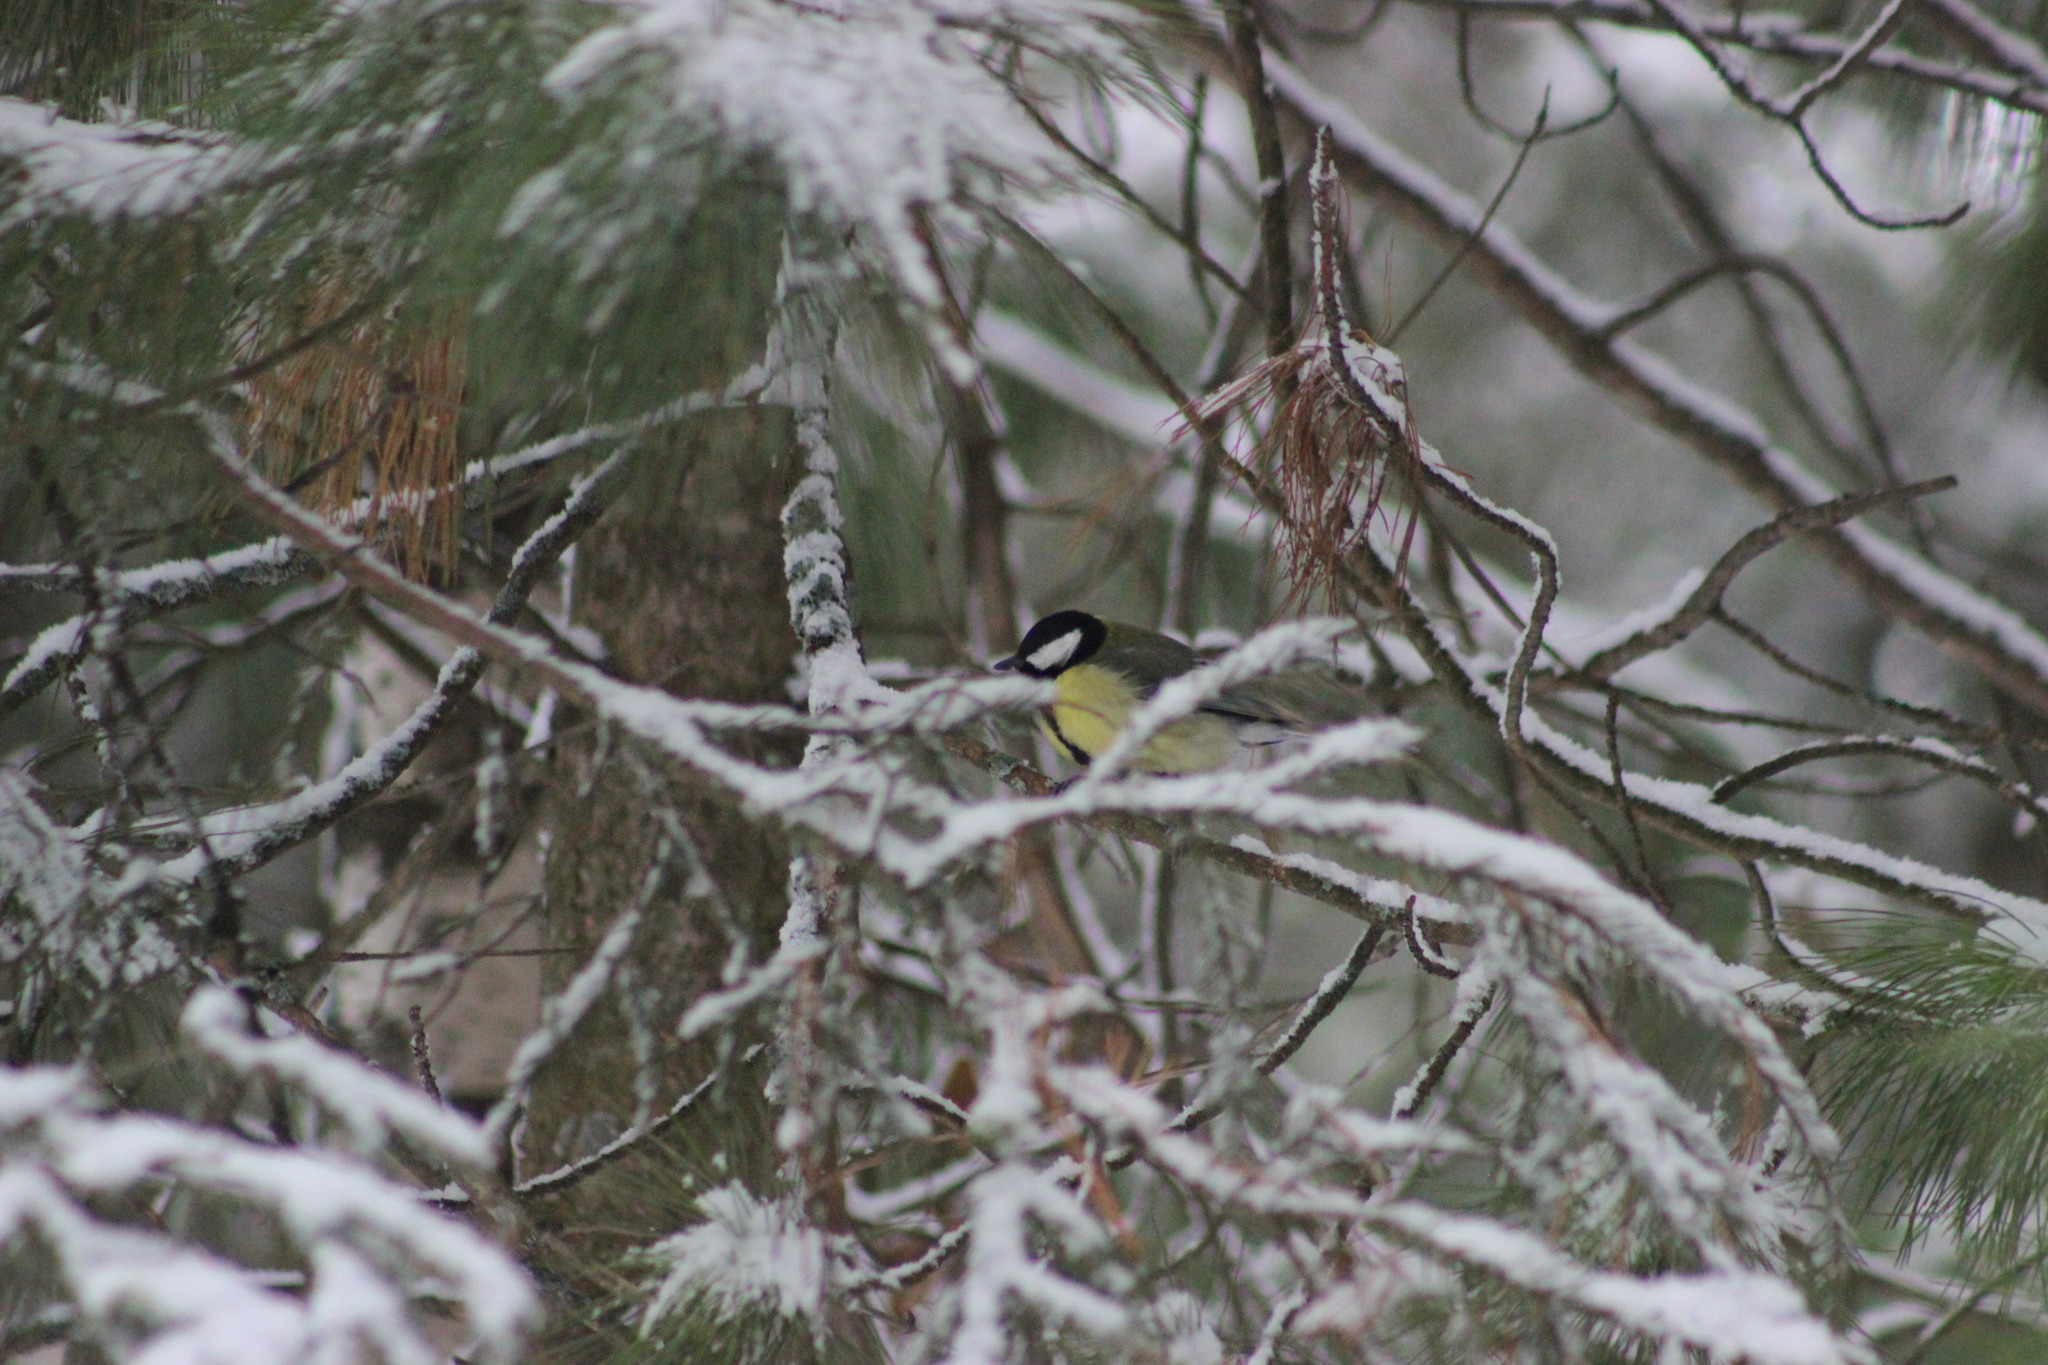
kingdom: Animalia
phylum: Chordata
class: Aves
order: Passeriformes
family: Paridae
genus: Parus
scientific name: Parus major
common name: Great tit
